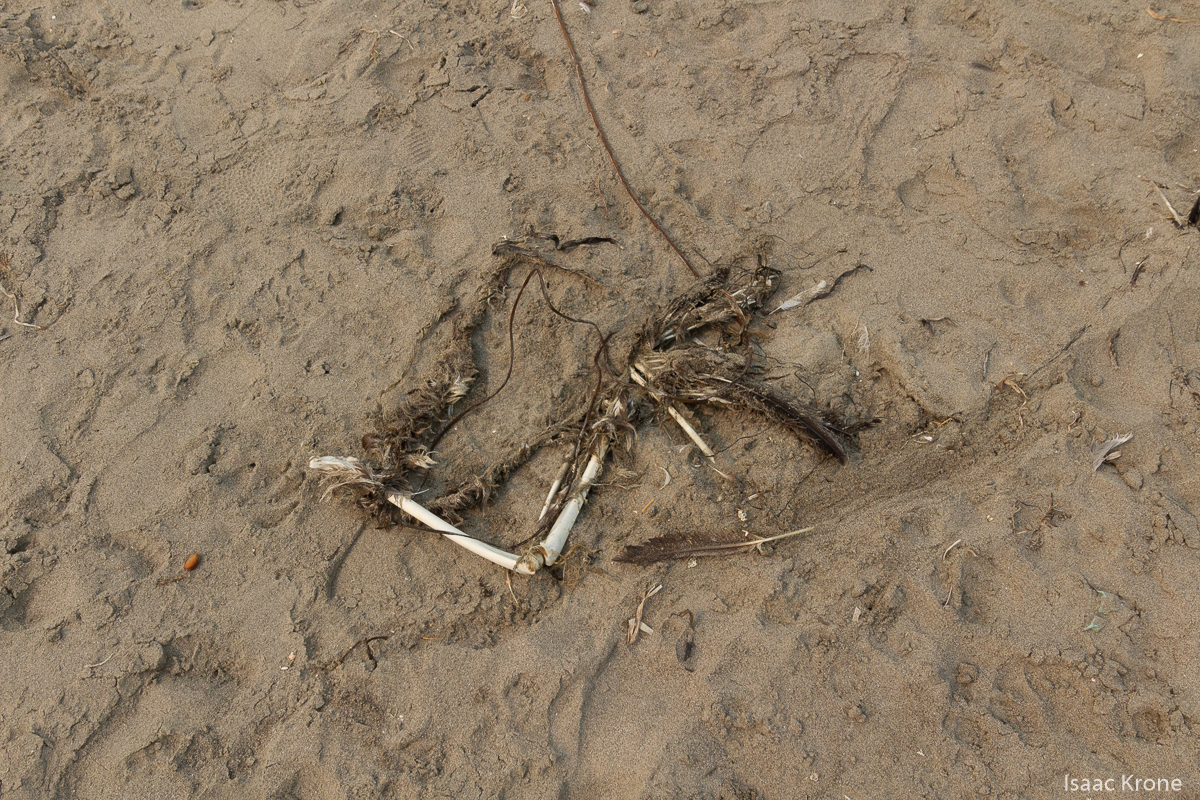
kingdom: Animalia
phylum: Chordata
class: Aves
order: Pelecaniformes
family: Pelecanidae
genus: Pelecanus
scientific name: Pelecanus occidentalis
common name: Brown pelican
